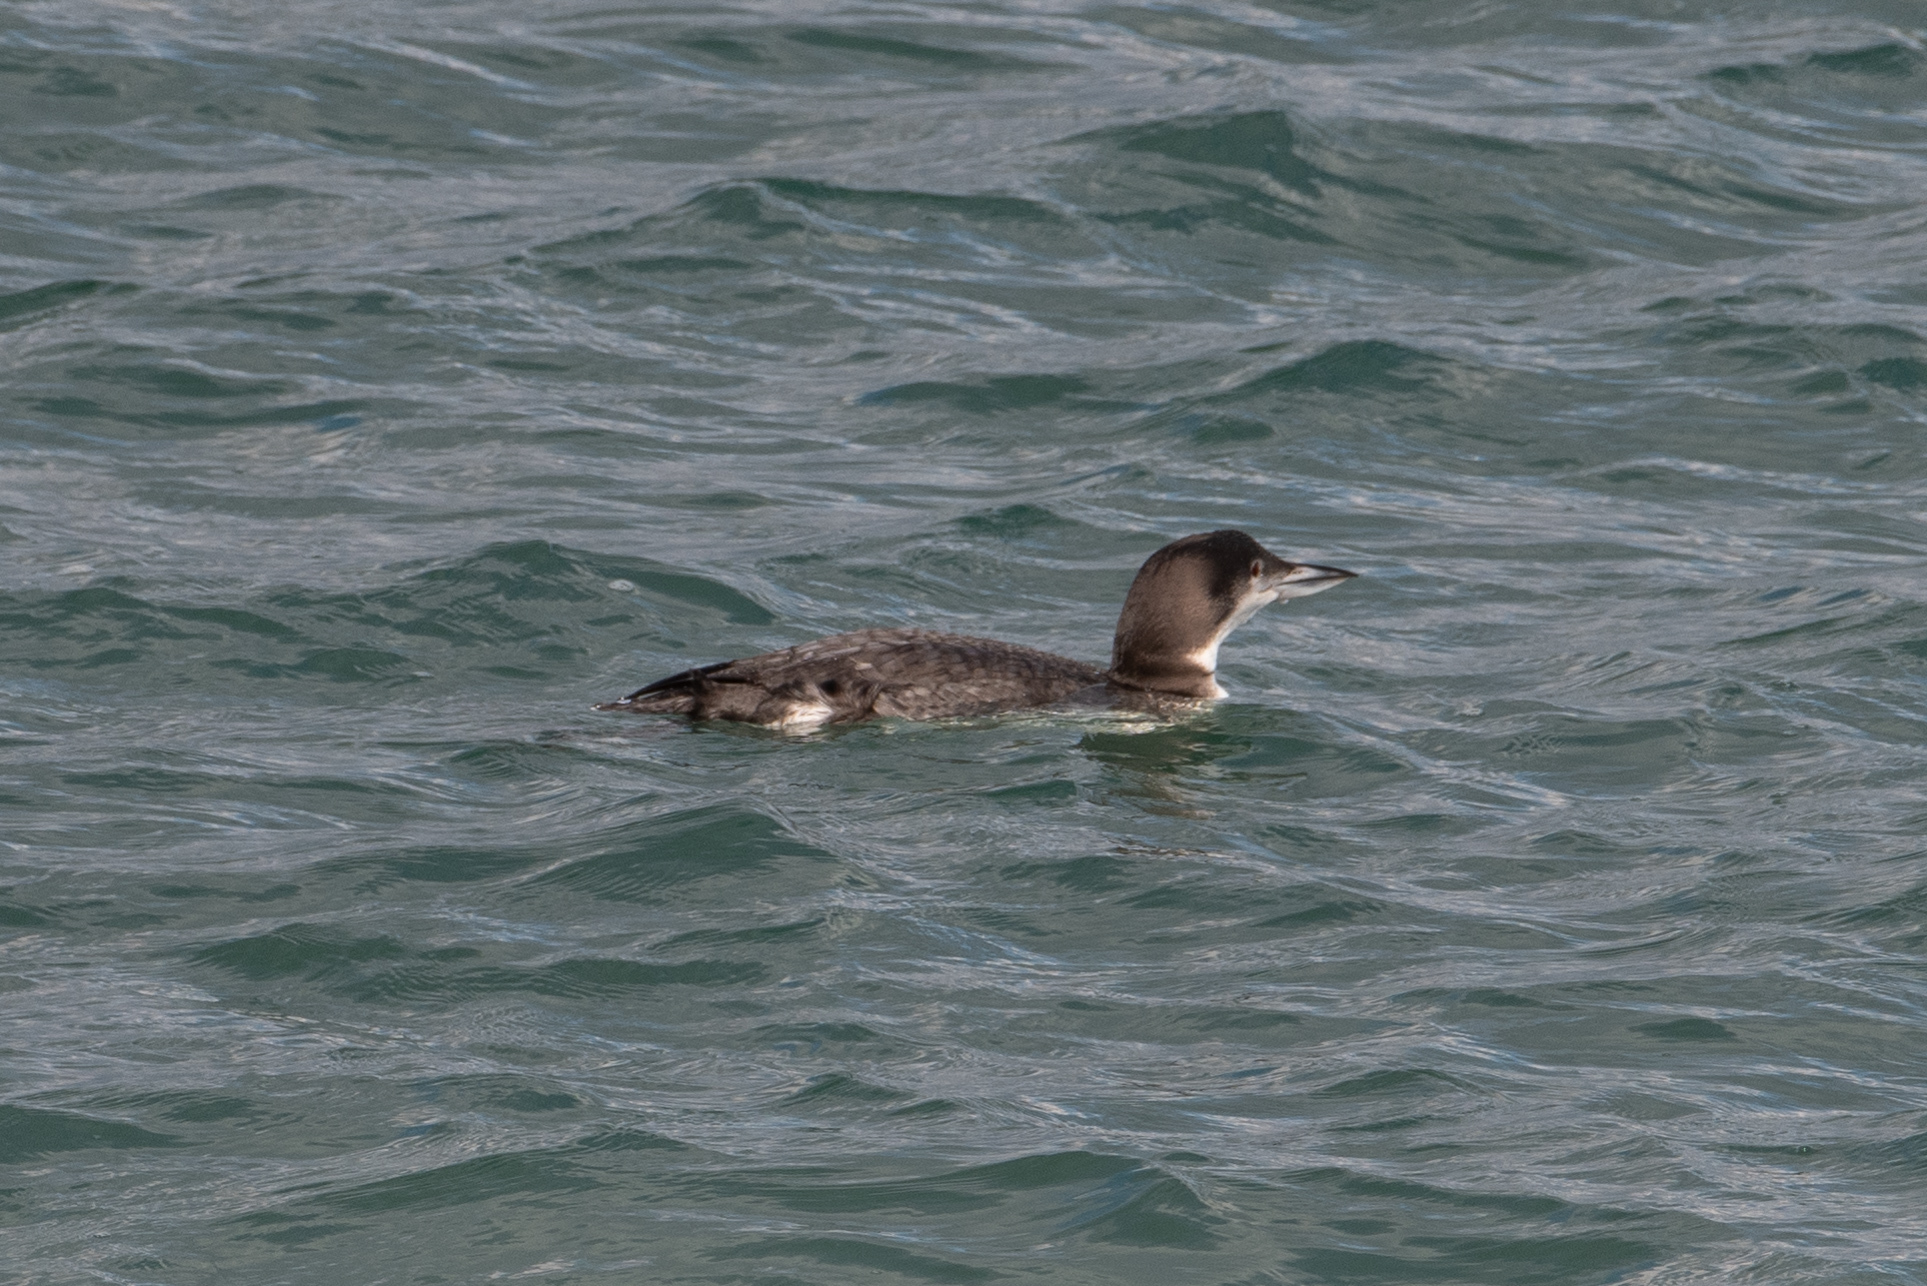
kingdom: Animalia
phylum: Chordata
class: Aves
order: Gaviiformes
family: Gaviidae
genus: Gavia
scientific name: Gavia immer
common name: Common loon
